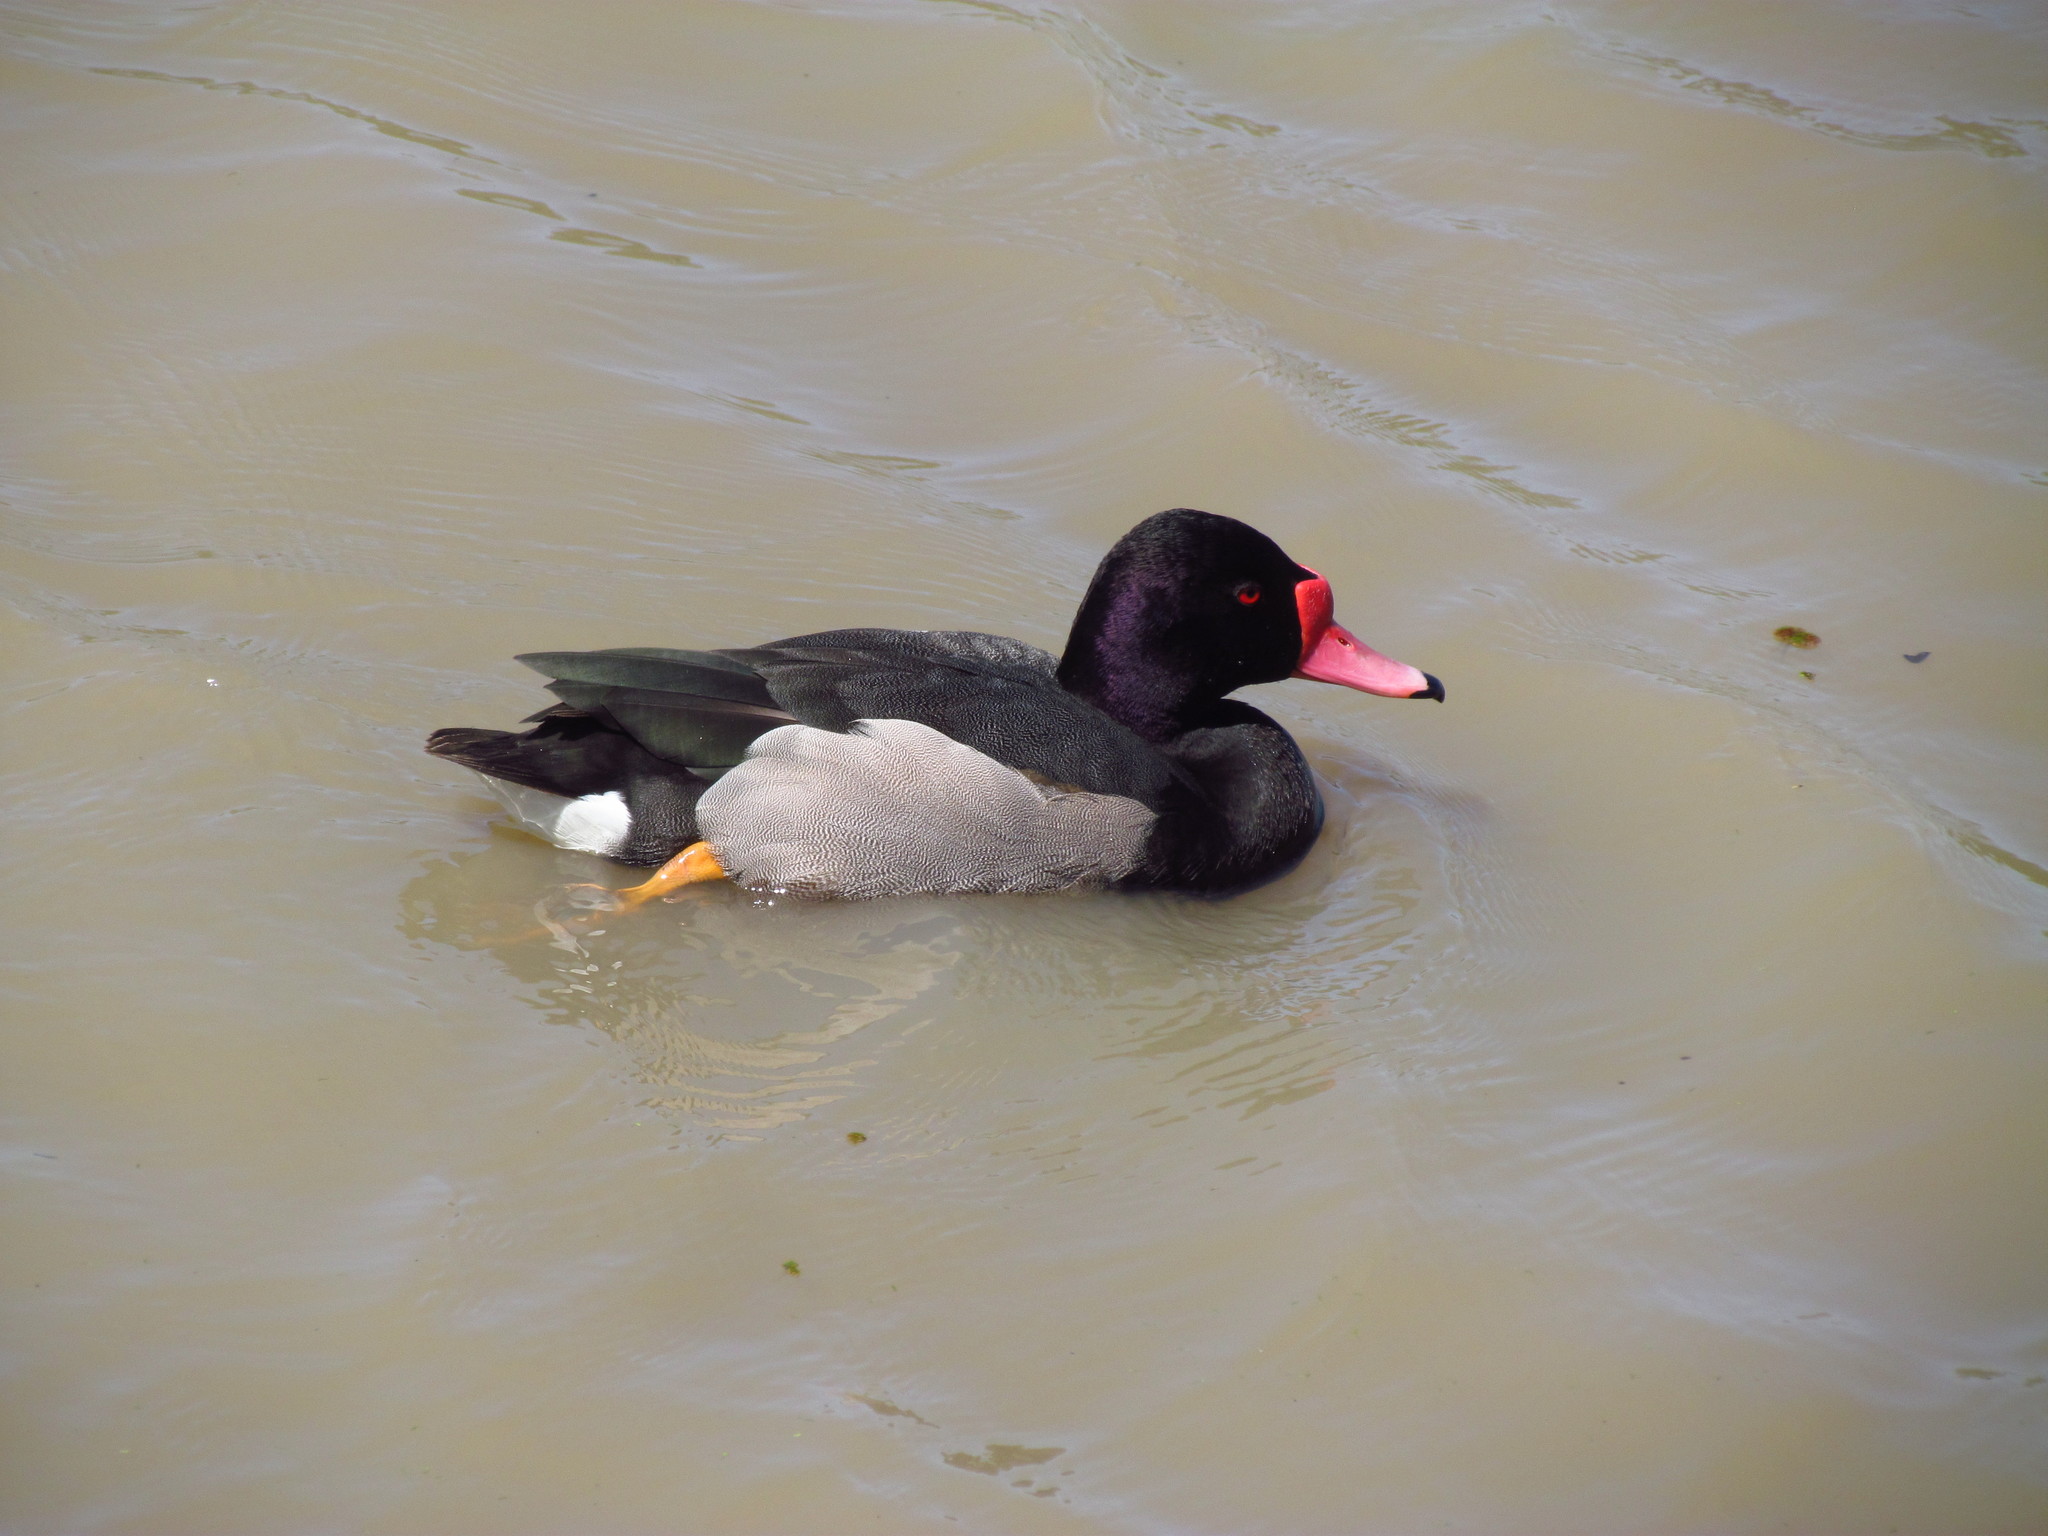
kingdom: Animalia
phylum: Chordata
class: Aves
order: Anseriformes
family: Anatidae
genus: Netta
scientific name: Netta peposaca
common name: Rosy-billed pochard
